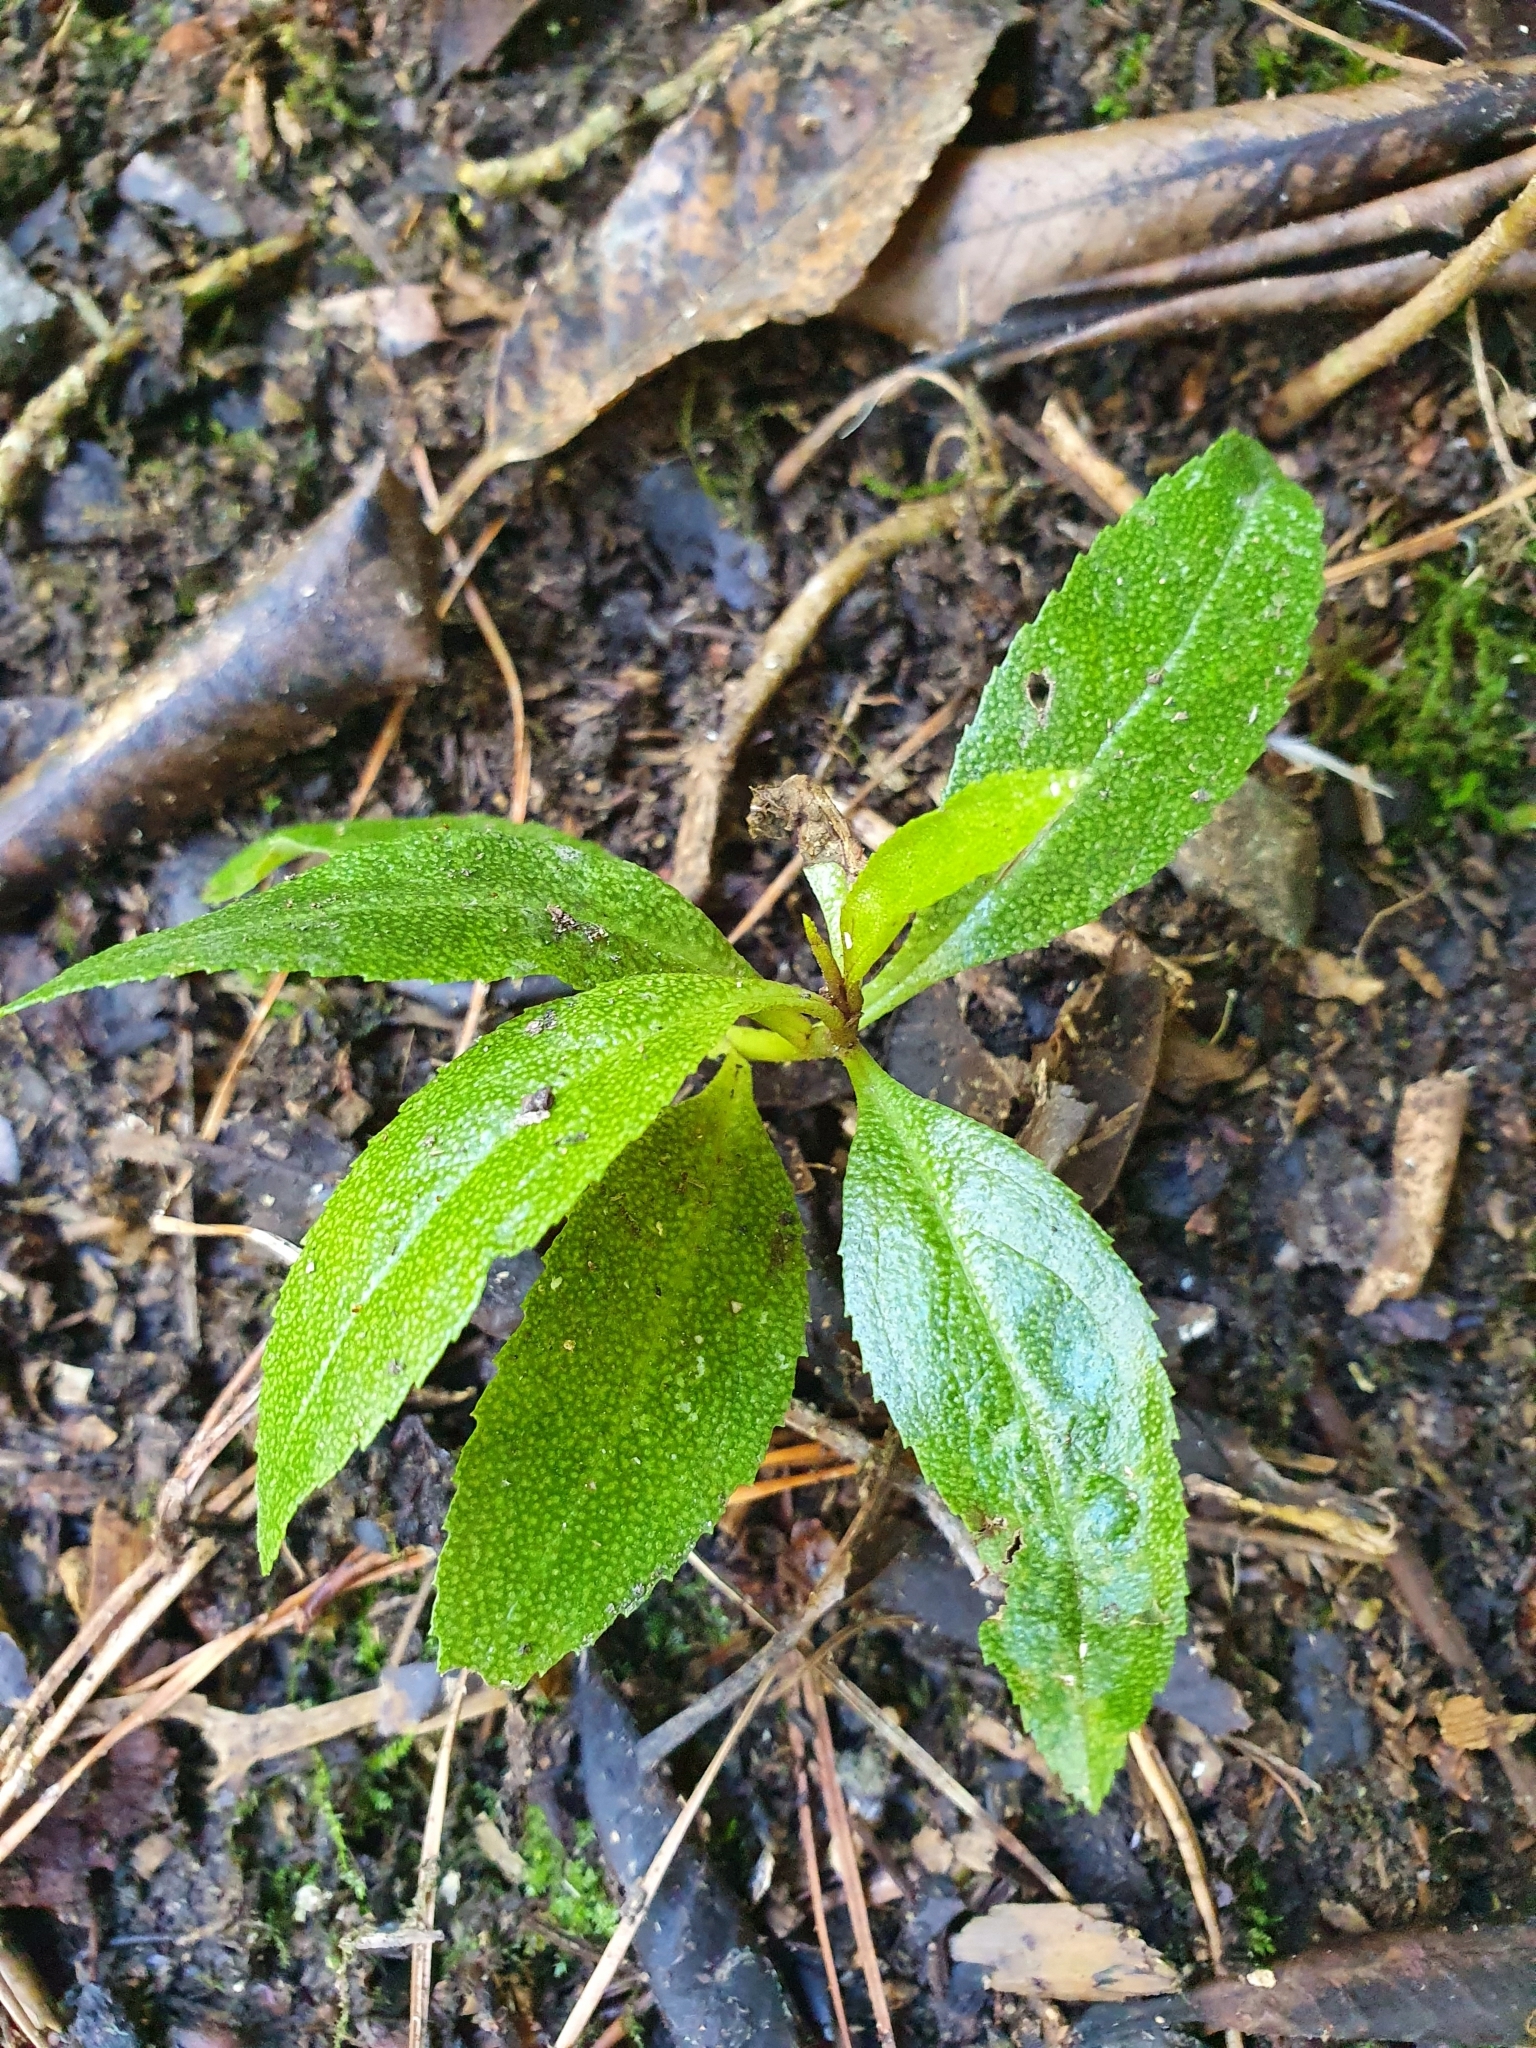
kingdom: Plantae
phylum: Tracheophyta
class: Magnoliopsida
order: Lamiales
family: Scrophulariaceae
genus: Myoporum
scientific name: Myoporum laetum
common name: Ngaio tree
